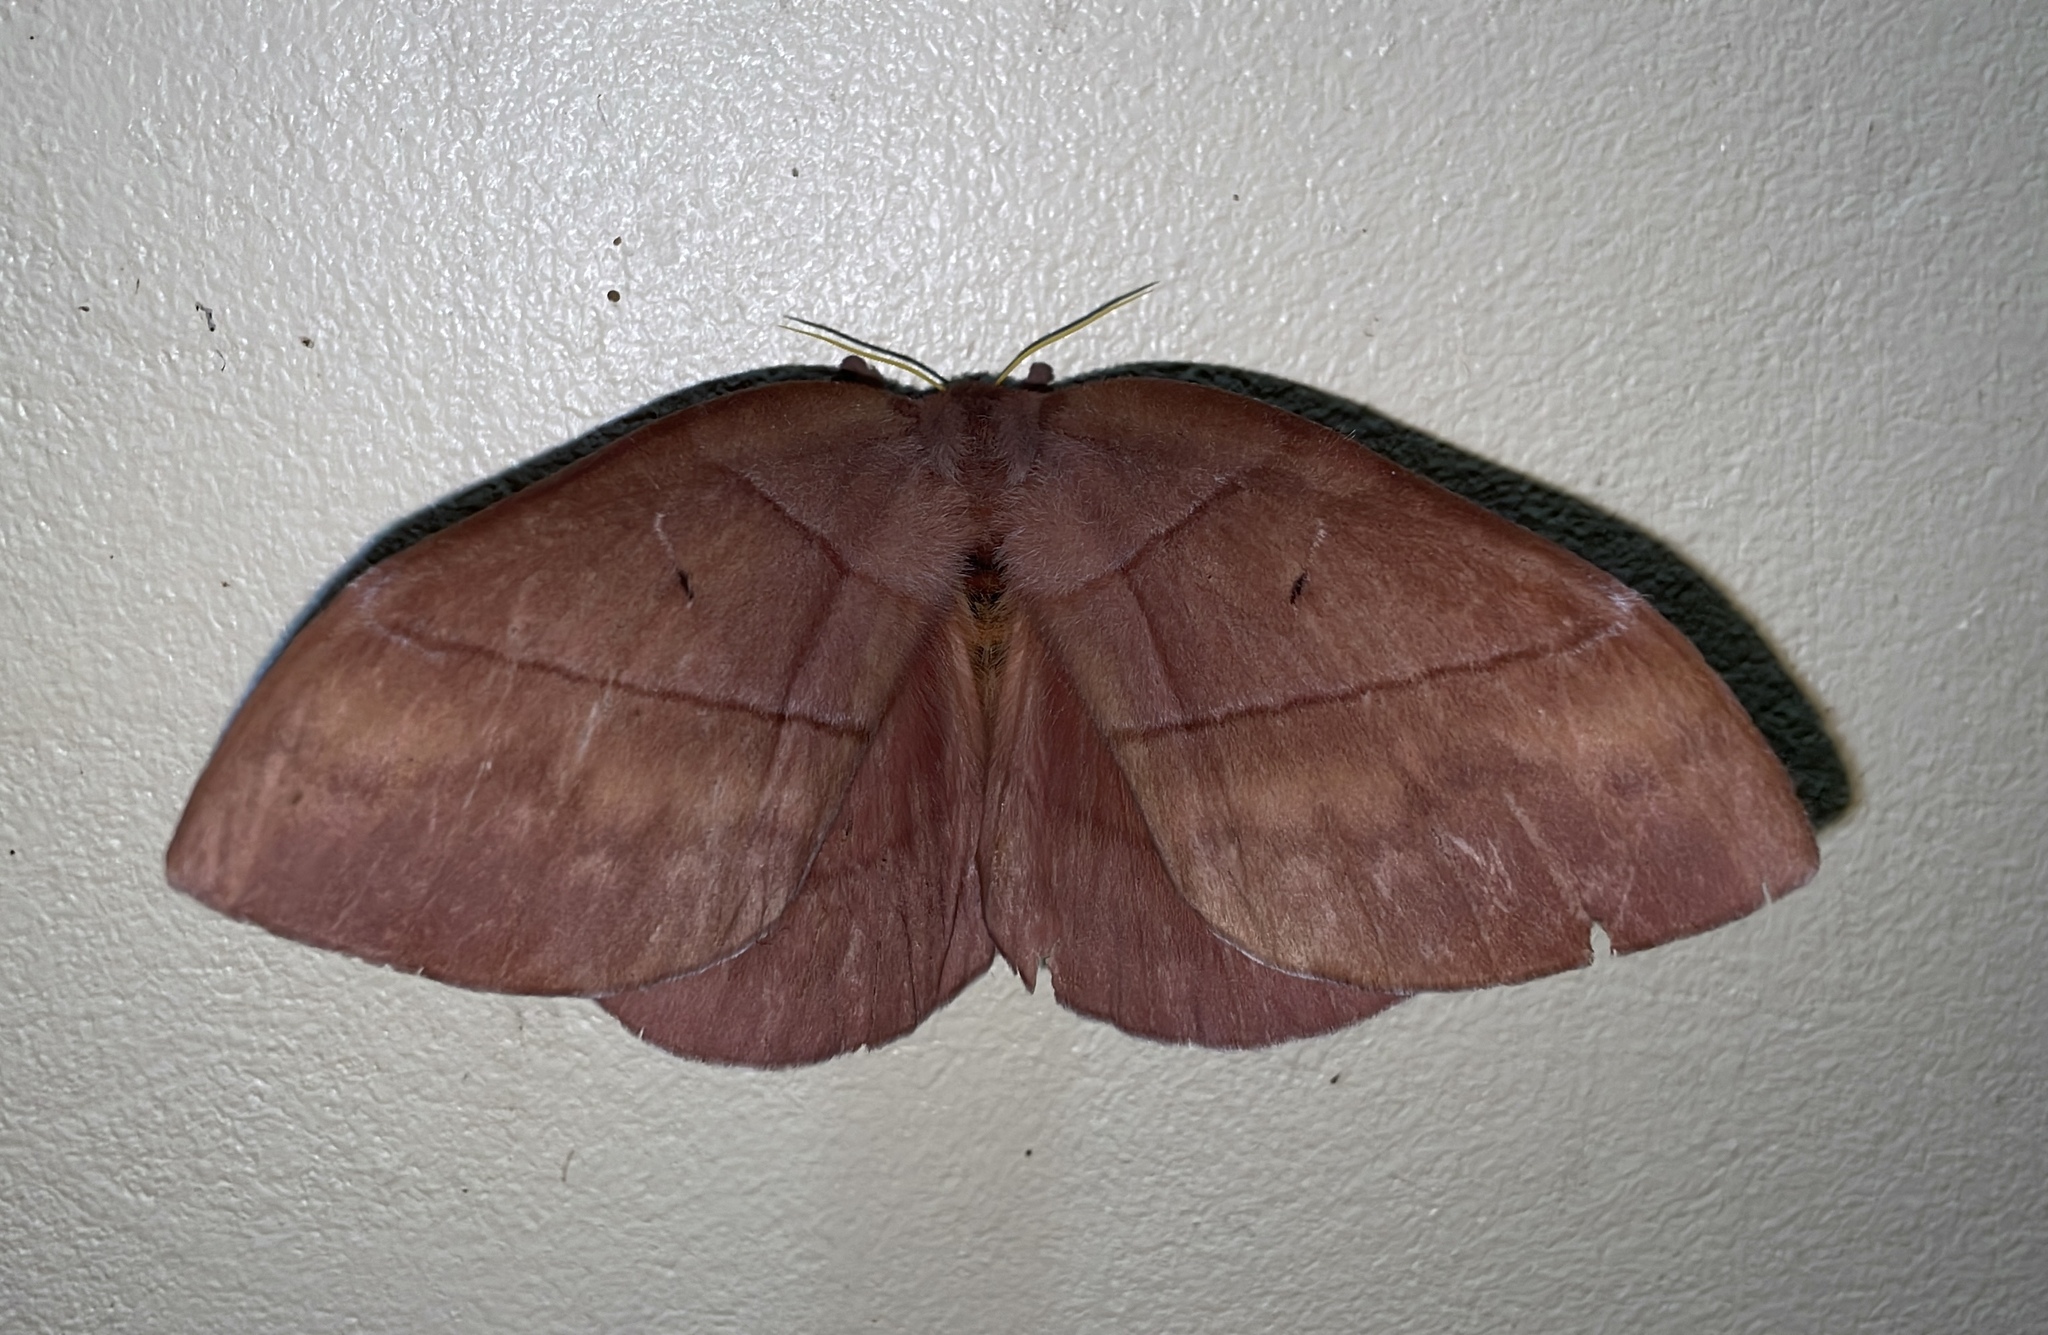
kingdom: Animalia
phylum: Arthropoda
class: Insecta
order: Lepidoptera
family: Saturniidae
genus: Periphoba
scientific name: Periphoba augur
